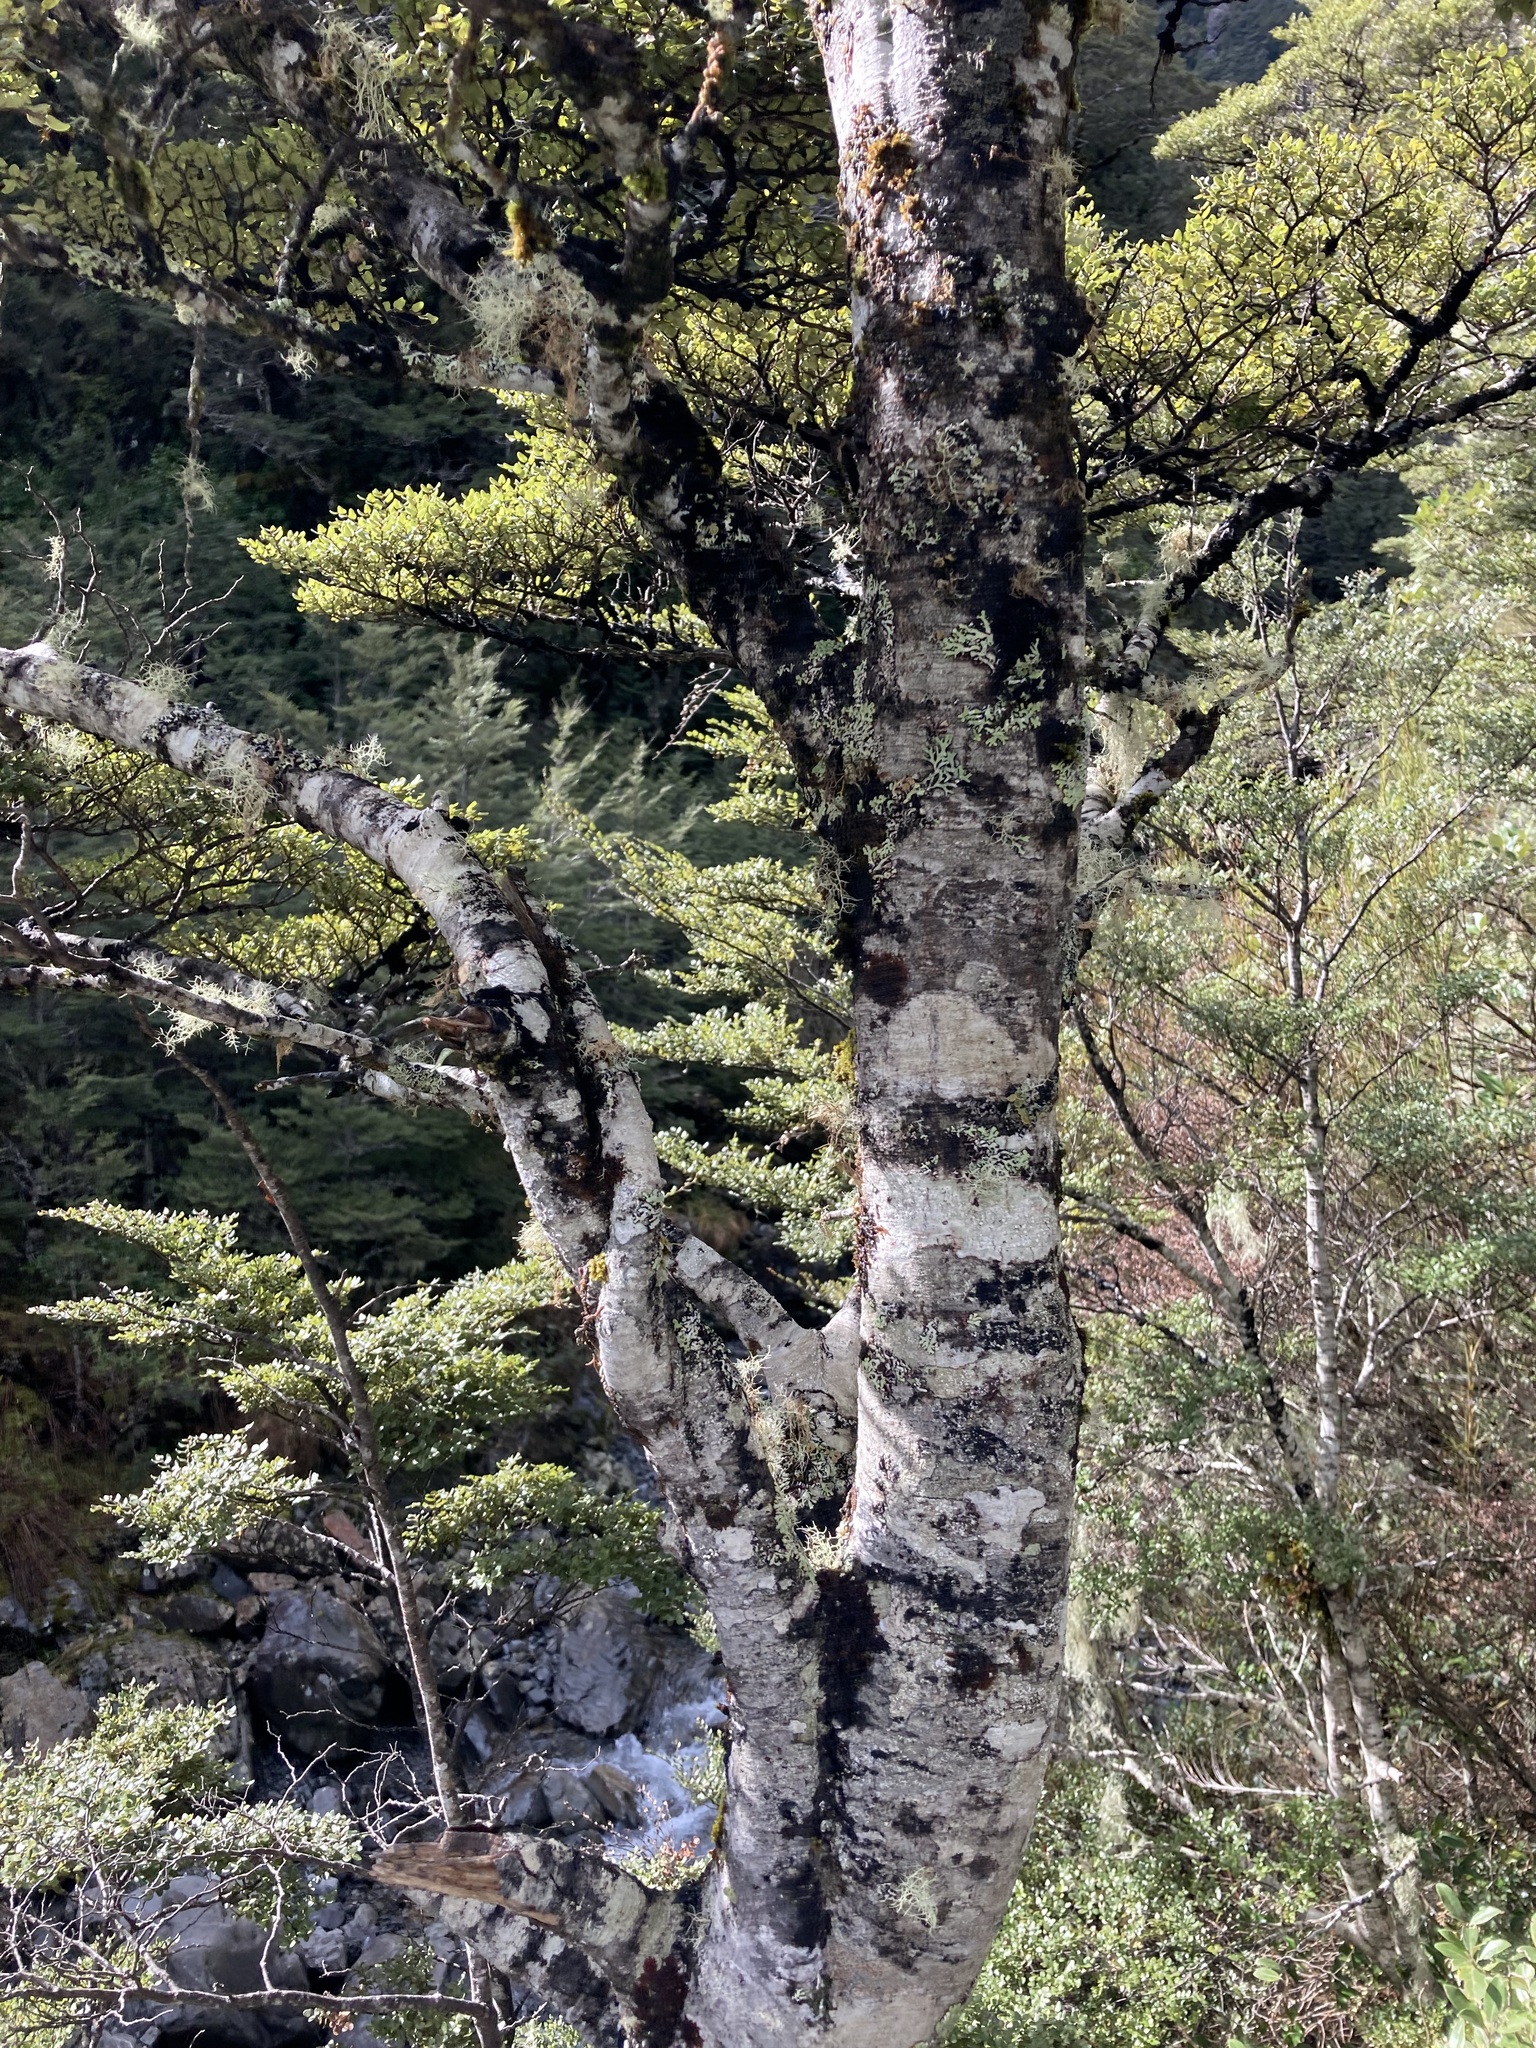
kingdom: Plantae
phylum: Tracheophyta
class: Magnoliopsida
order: Fagales
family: Nothofagaceae
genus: Nothofagus
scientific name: Nothofagus cliffortioides
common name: Mountain beech
